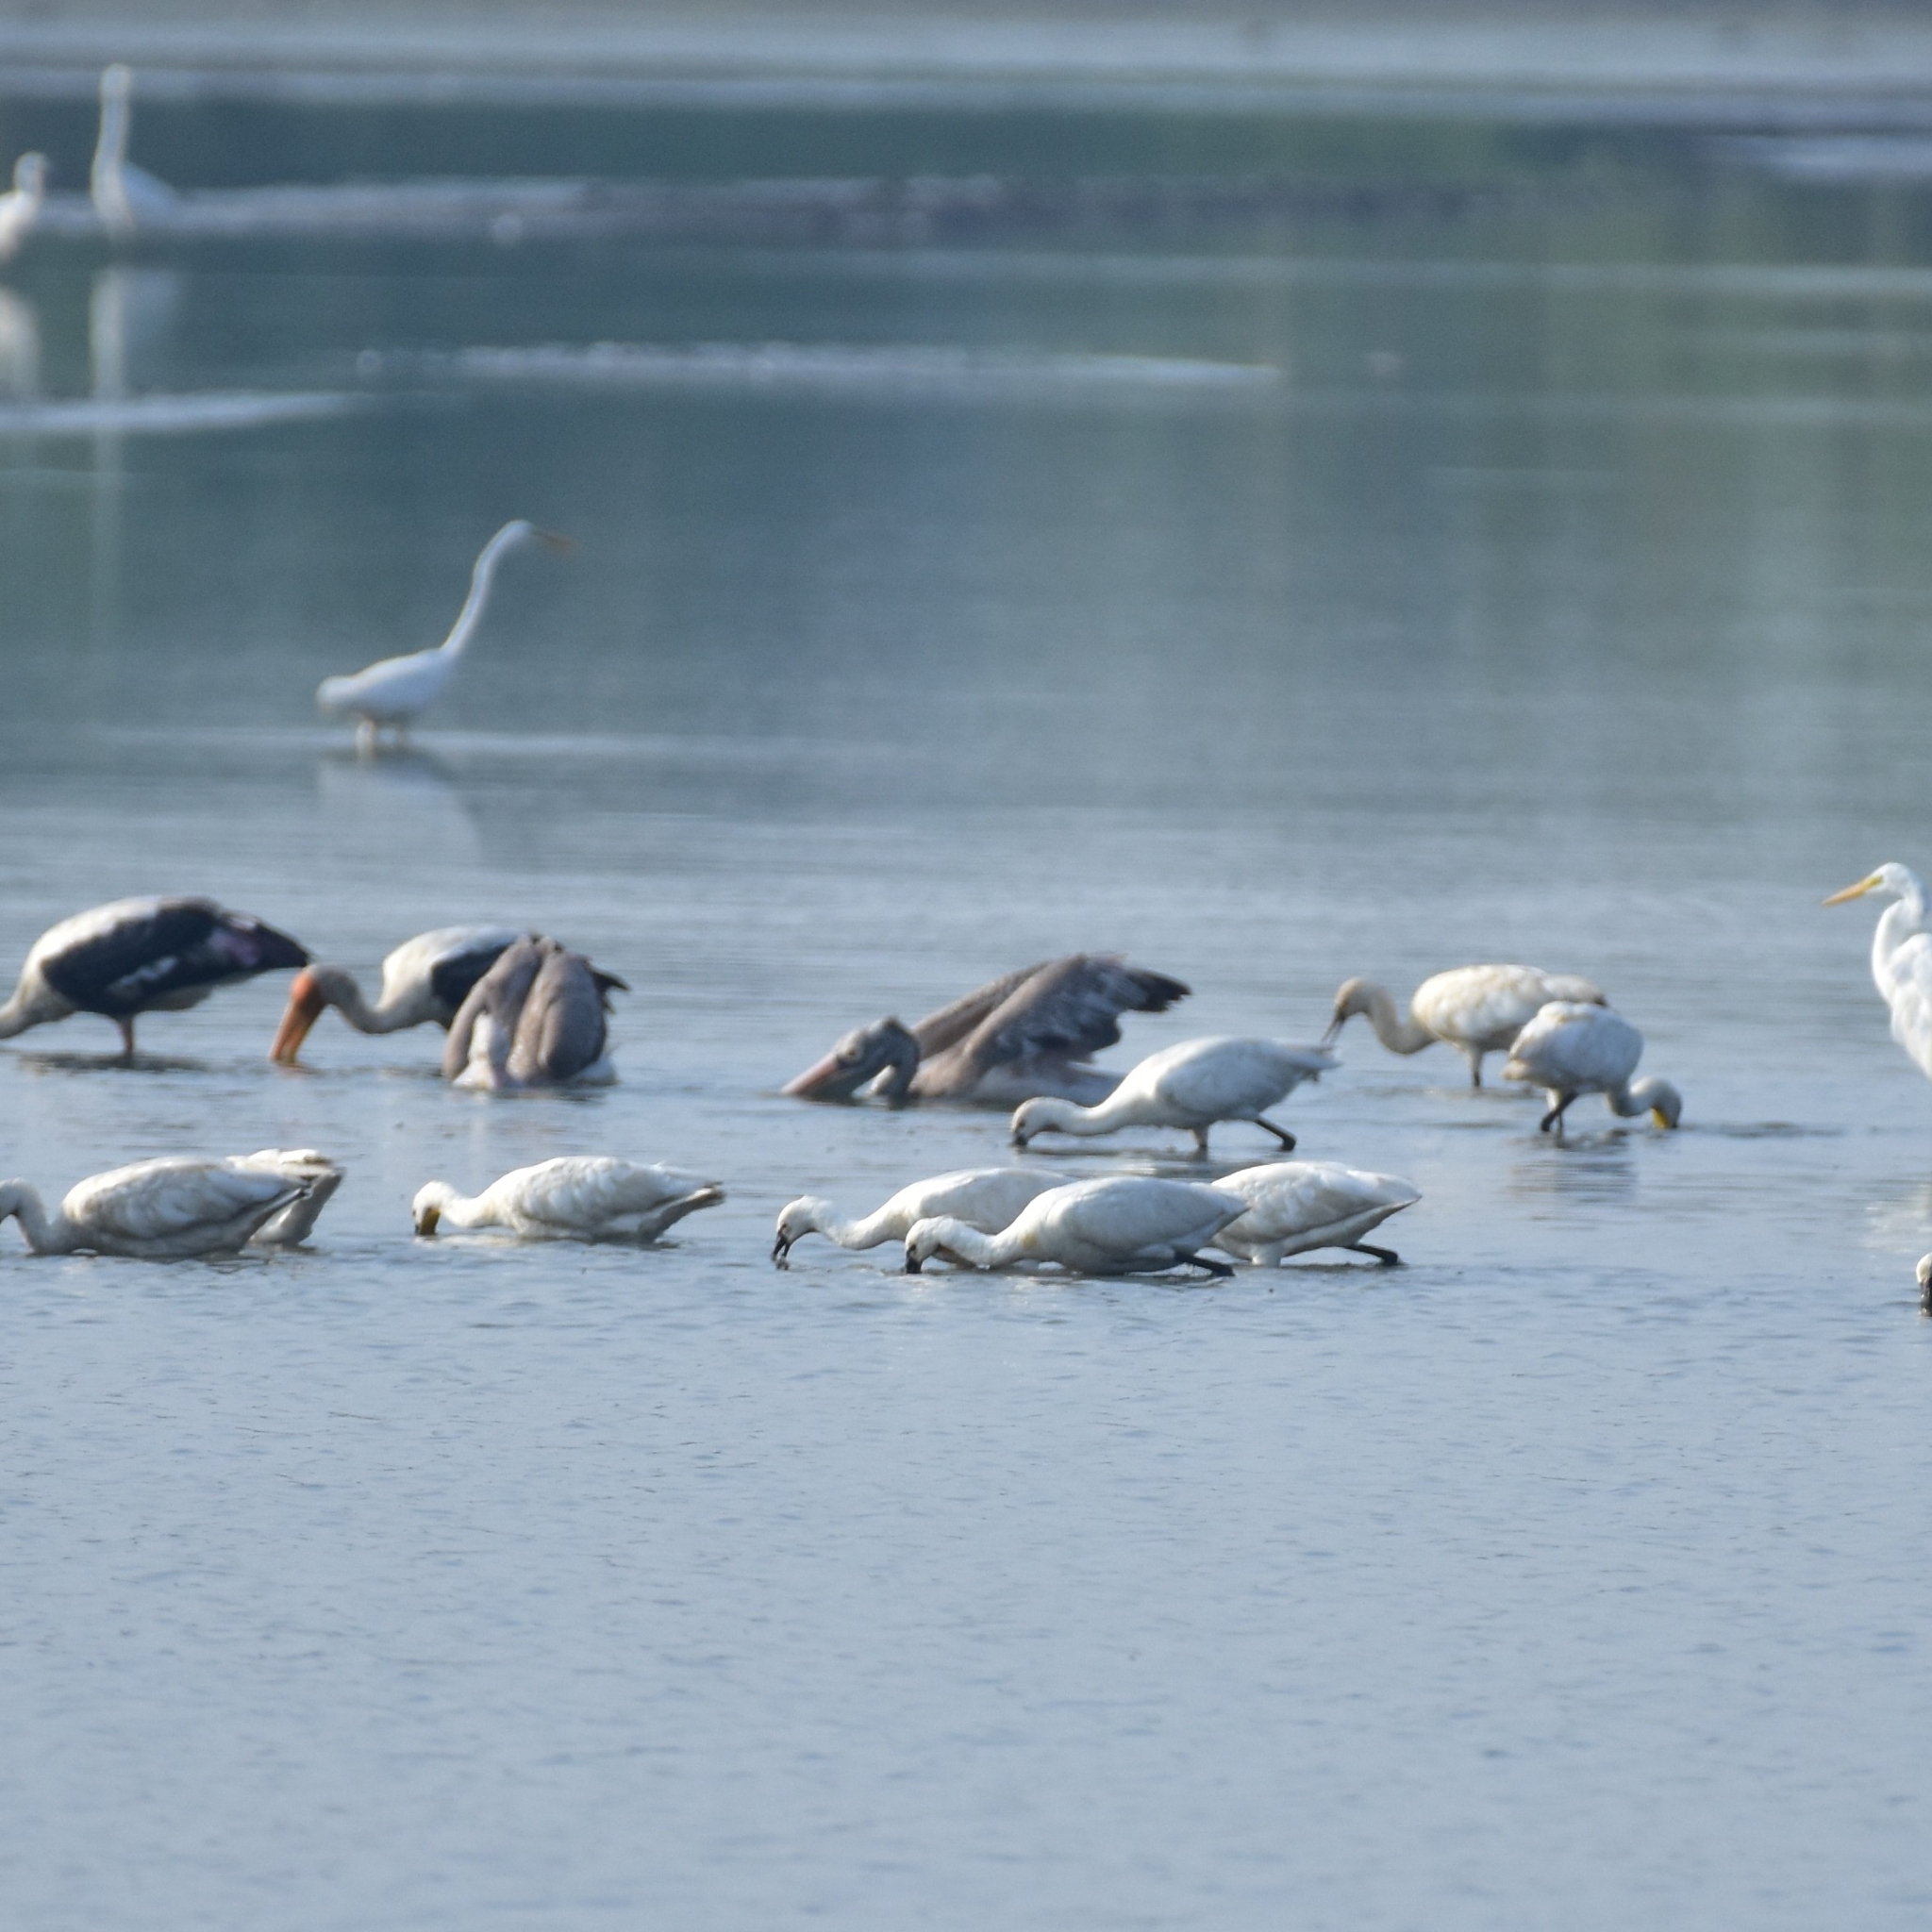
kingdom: Animalia
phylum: Chordata
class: Aves
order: Pelecaniformes
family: Pelecanidae
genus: Pelecanus
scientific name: Pelecanus philippensis
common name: Spot-billed pelican
